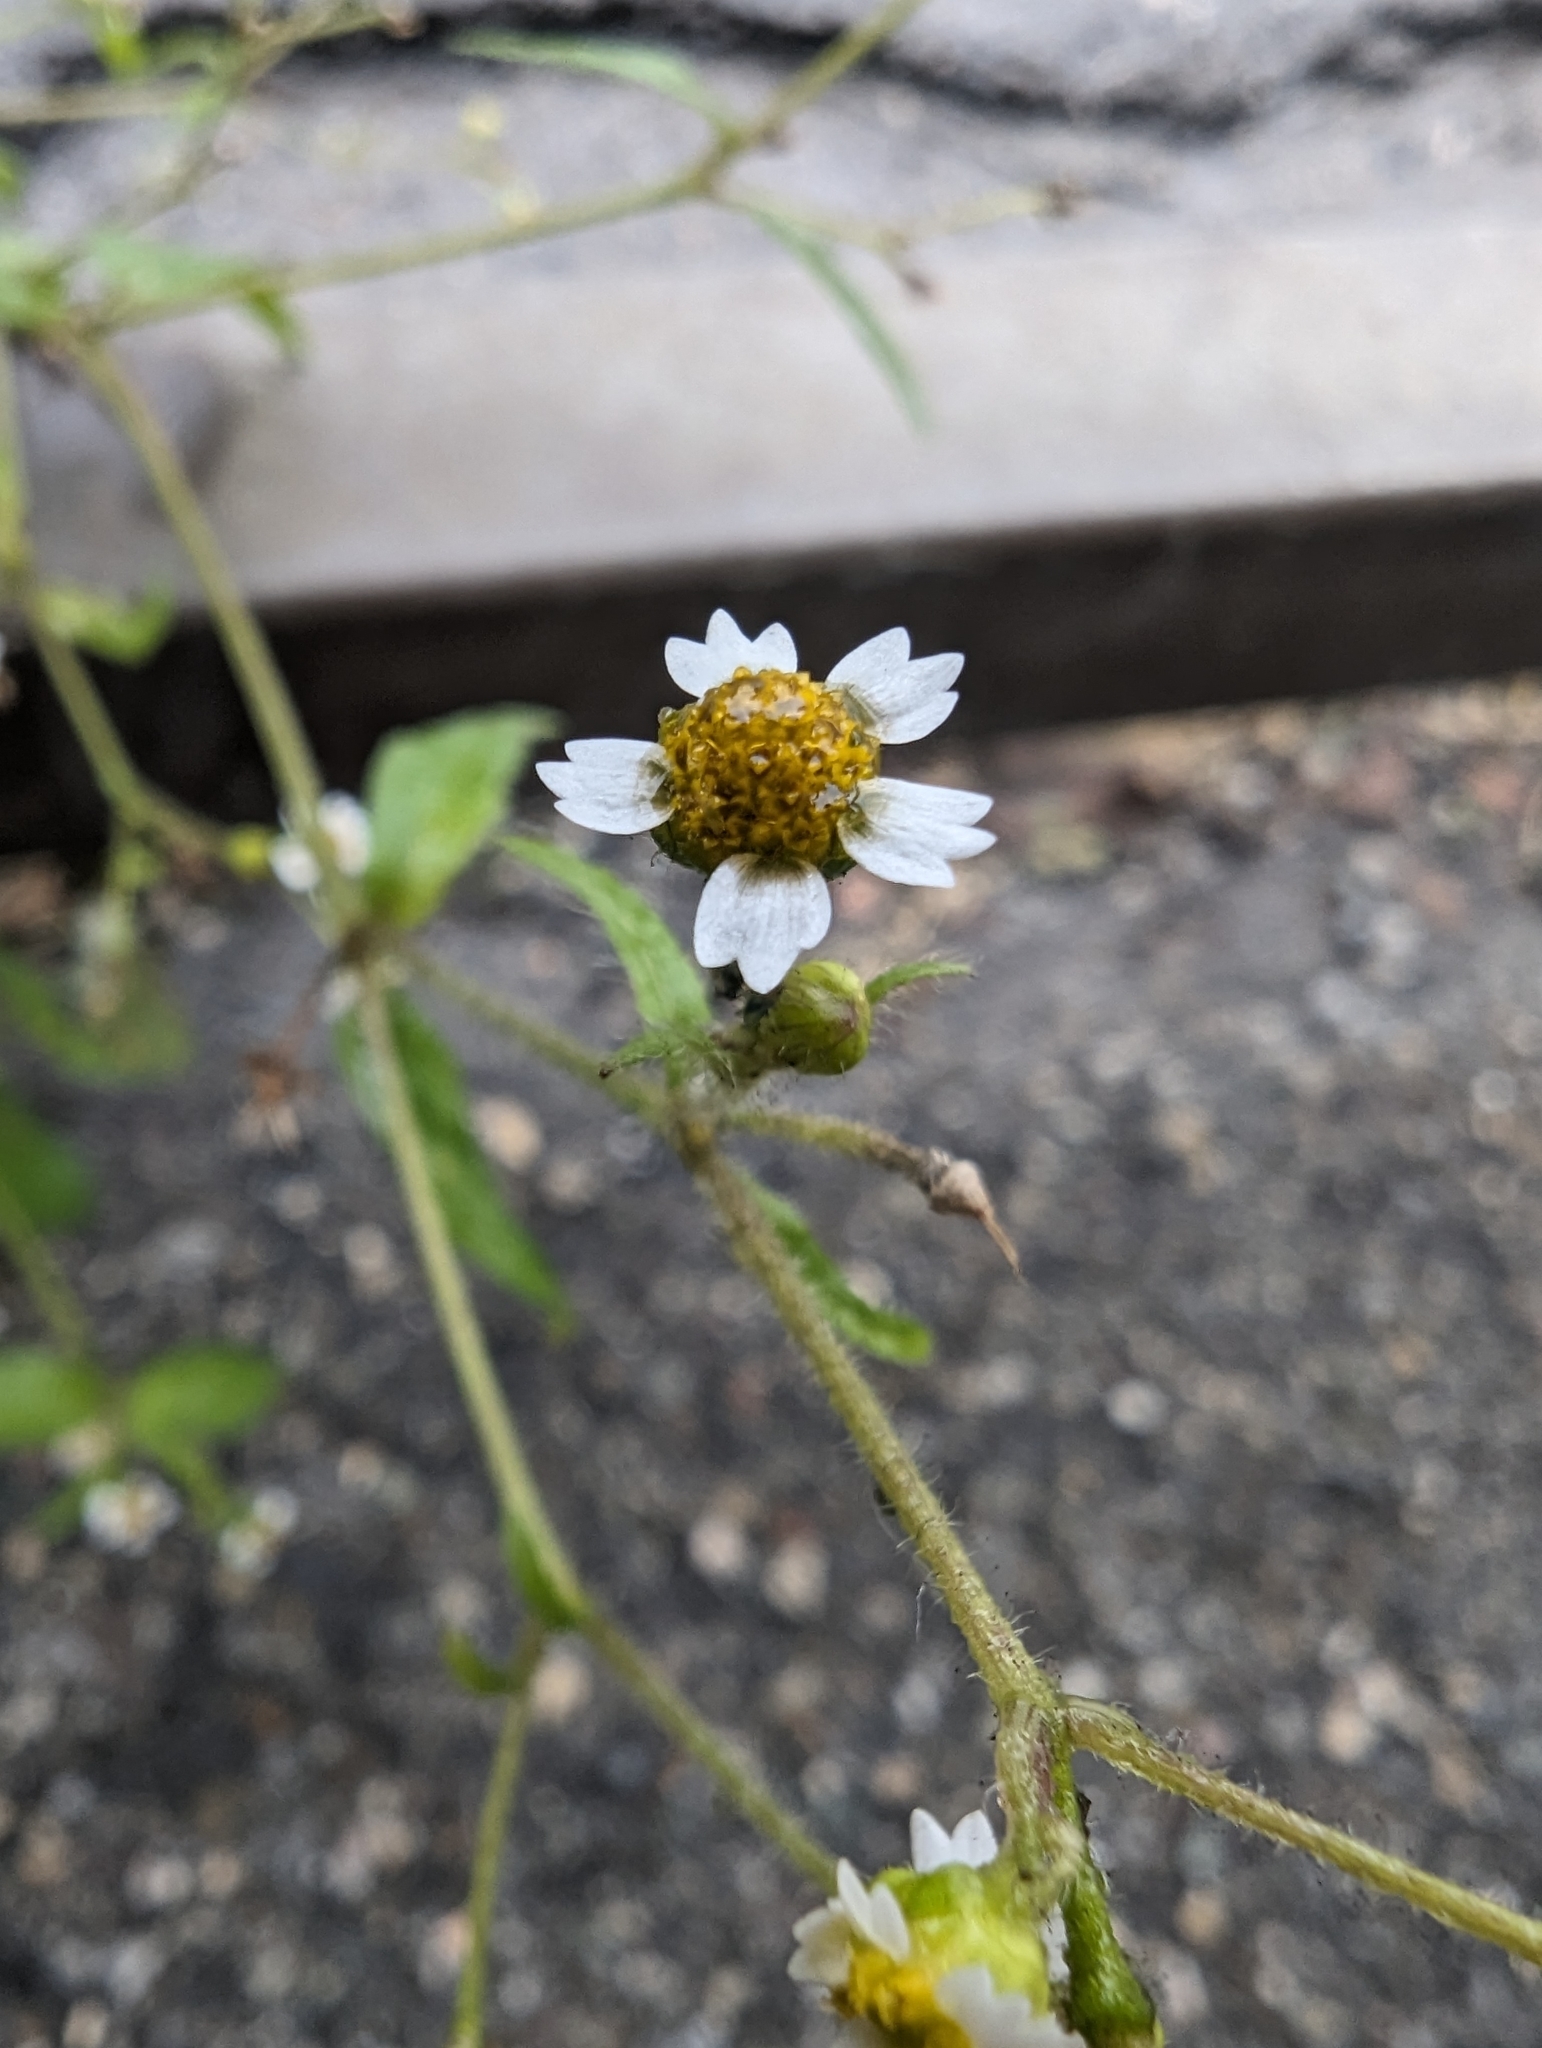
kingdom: Plantae
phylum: Tracheophyta
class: Magnoliopsida
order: Asterales
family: Asteraceae
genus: Galinsoga
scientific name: Galinsoga quadriradiata
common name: Shaggy soldier
